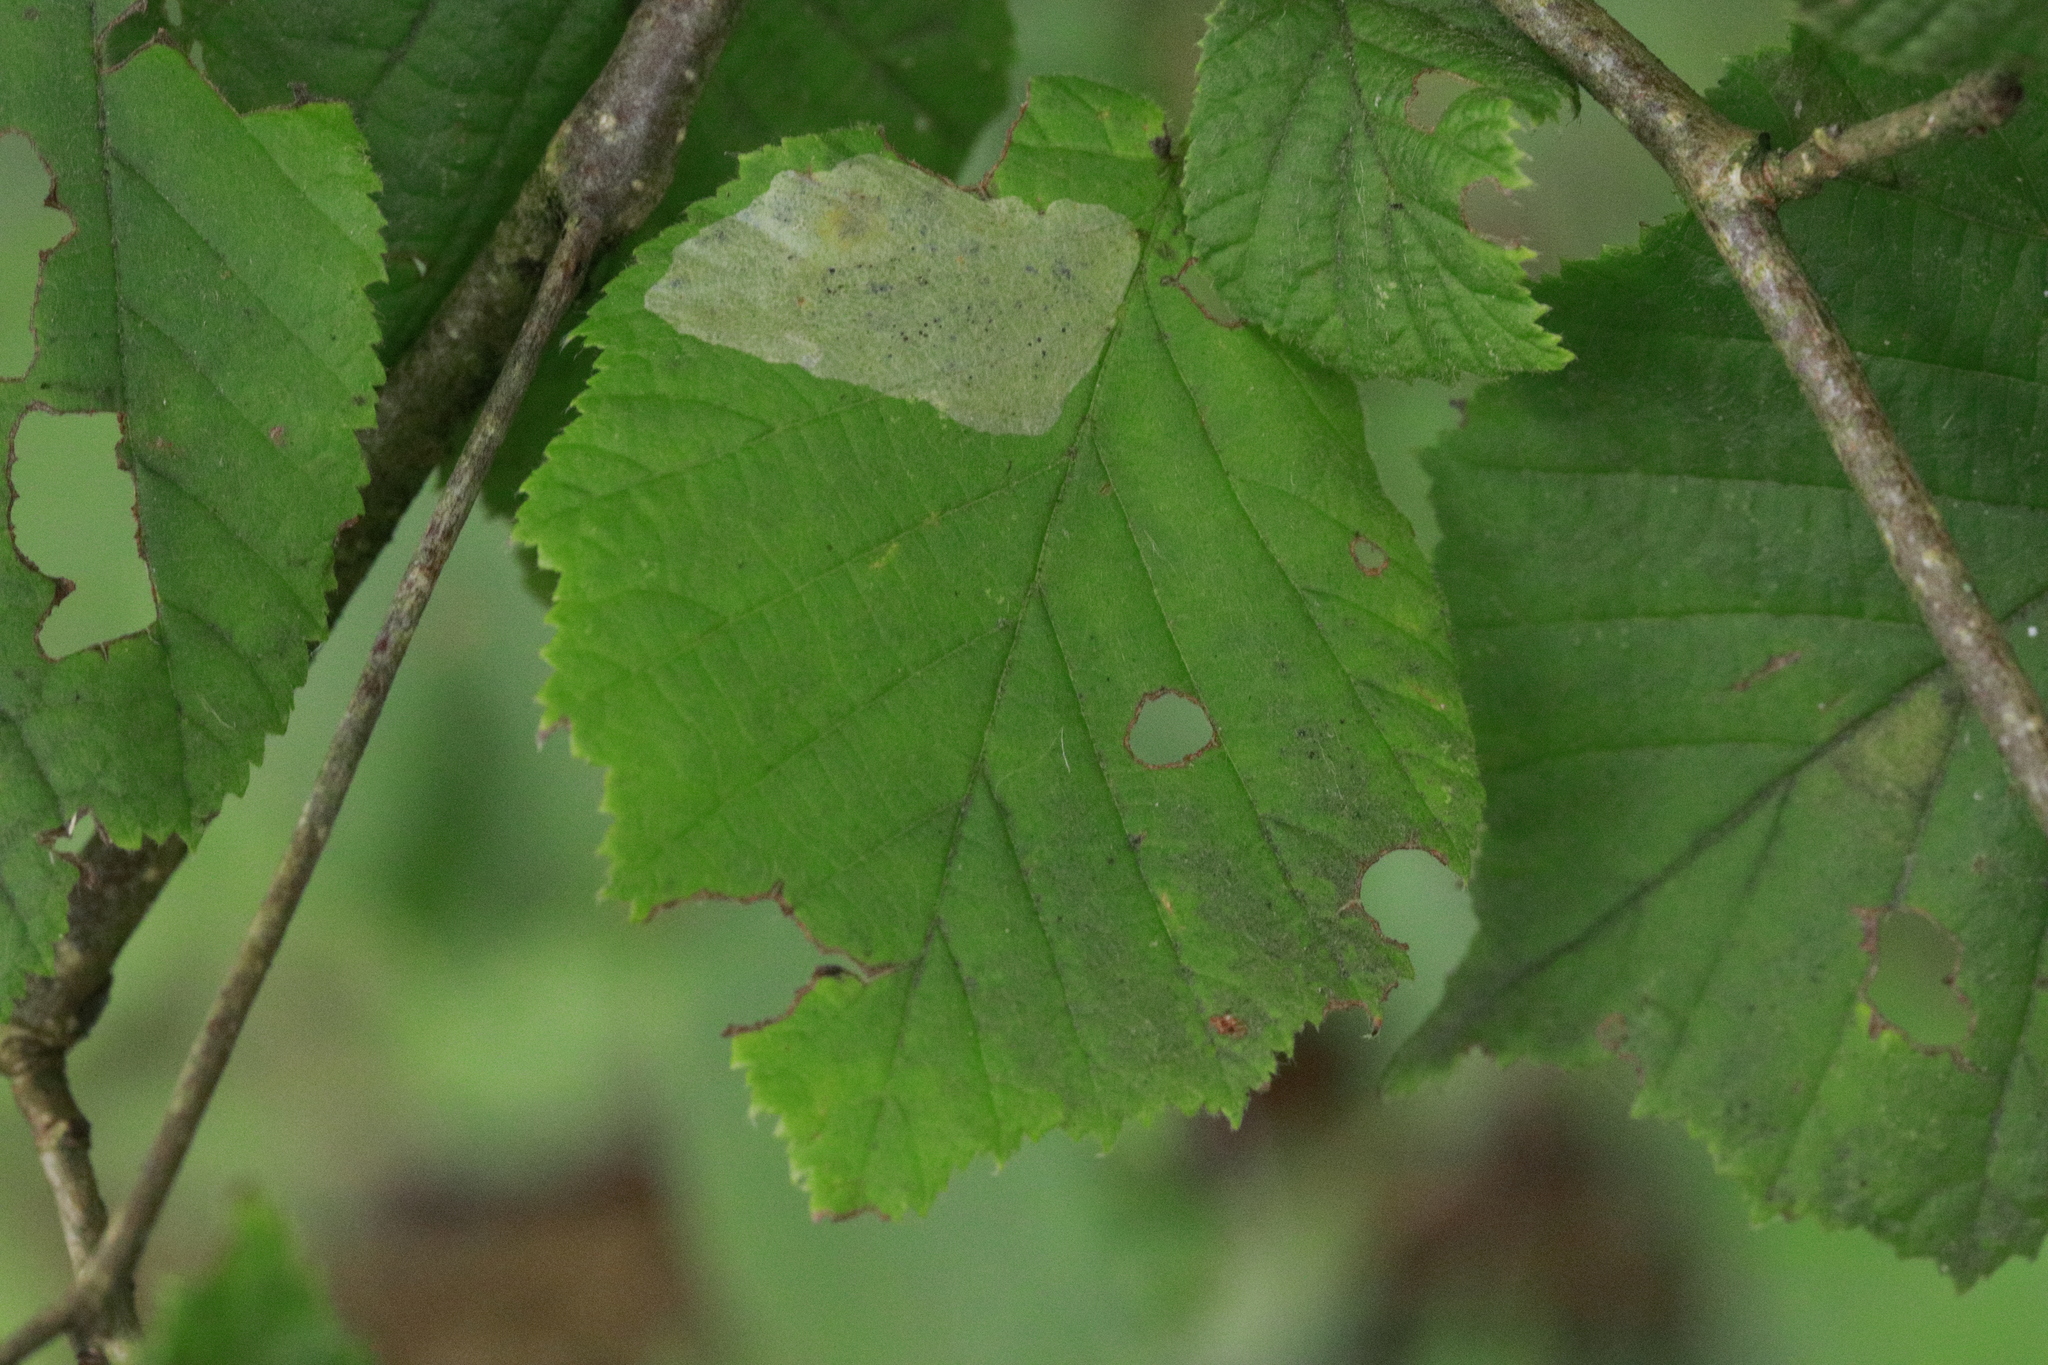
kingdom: Animalia
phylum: Arthropoda
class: Insecta
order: Lepidoptera
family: Gracillariidae
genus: Phyllonorycter
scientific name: Phyllonorycter coryli
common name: Nut-leaf blister moth
